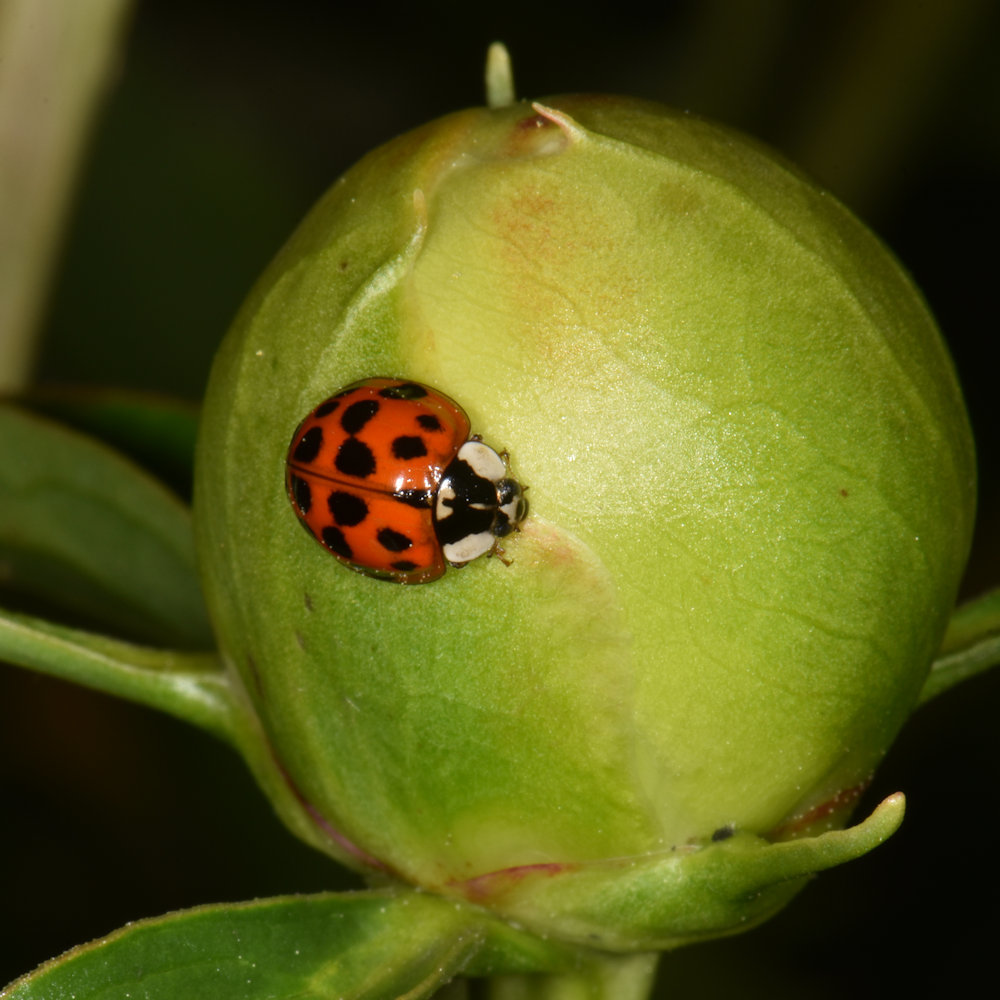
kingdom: Animalia
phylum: Arthropoda
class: Insecta
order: Coleoptera
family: Coccinellidae
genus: Harmonia
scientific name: Harmonia axyridis
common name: Harlequin ladybird
